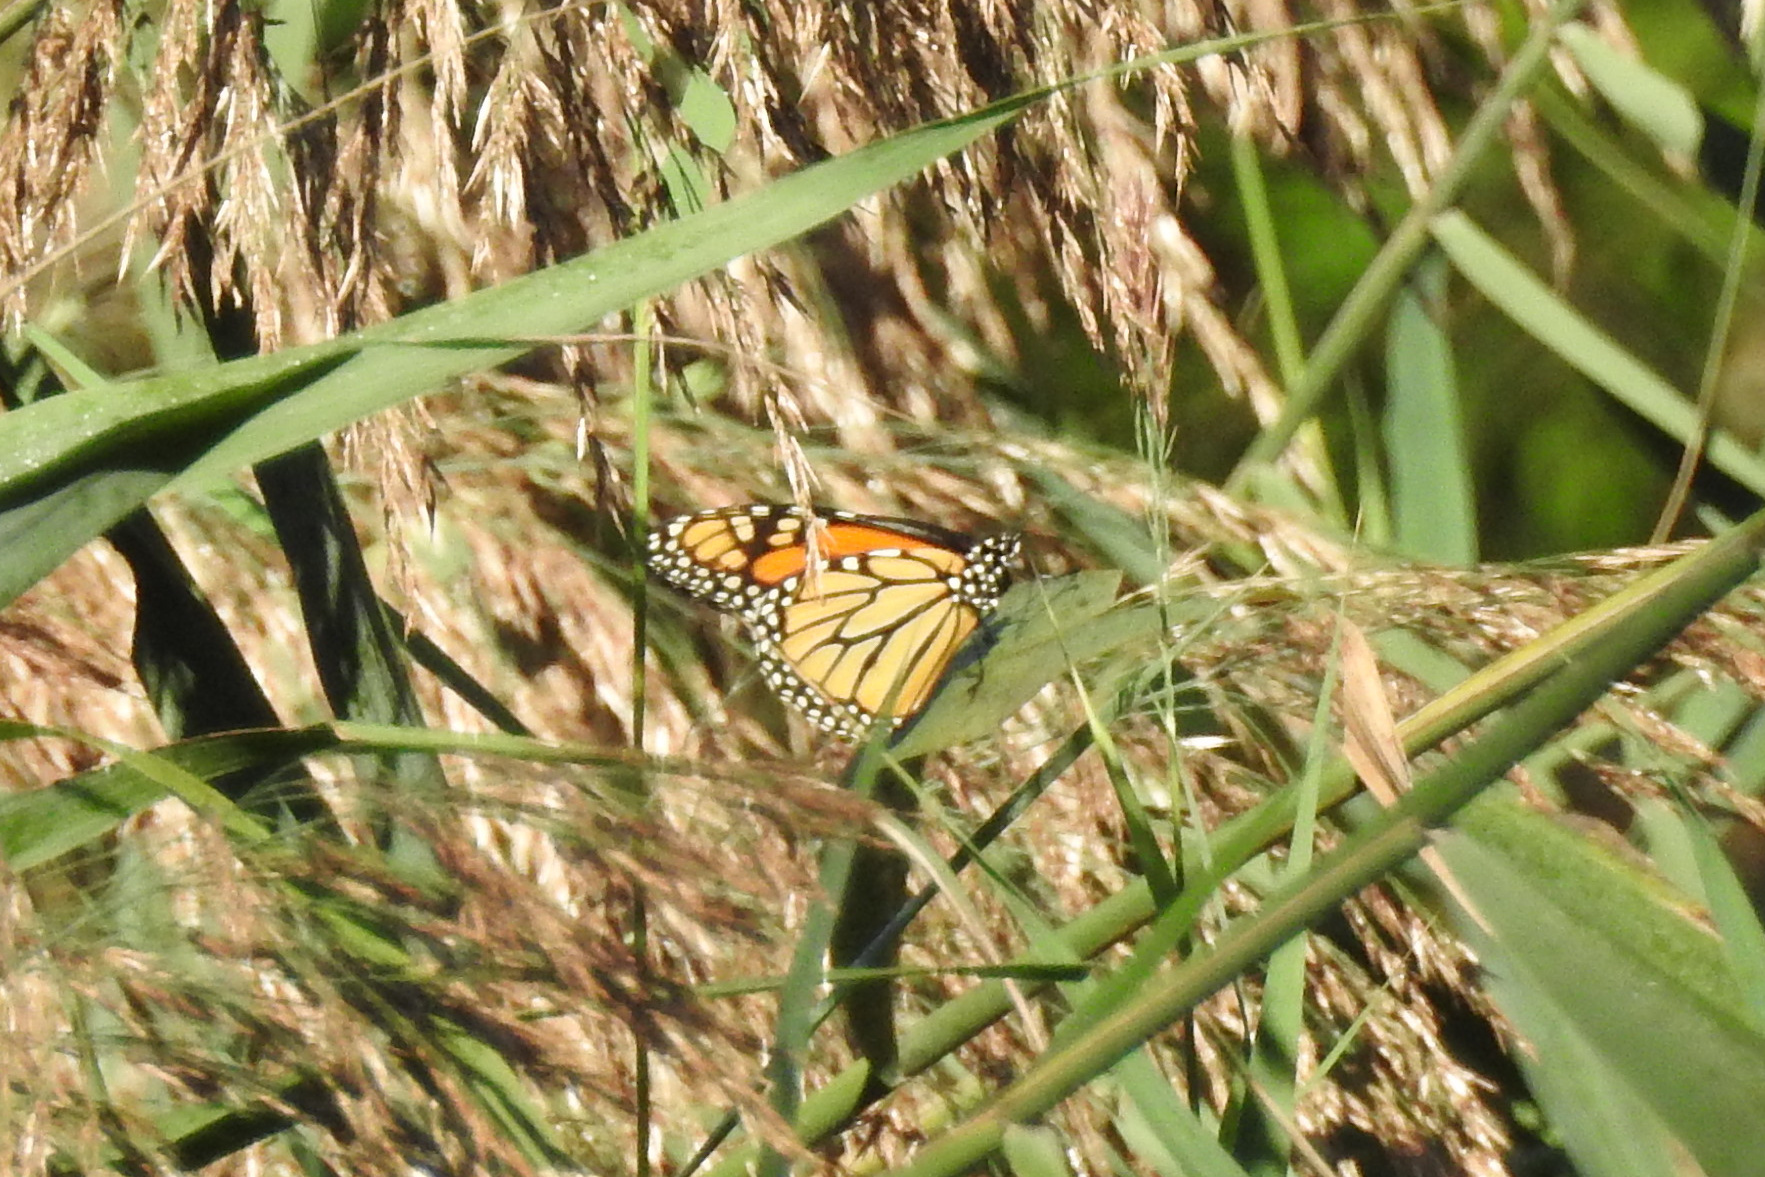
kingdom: Animalia
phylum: Arthropoda
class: Insecta
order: Lepidoptera
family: Nymphalidae
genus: Danaus
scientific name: Danaus plexippus
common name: Monarch
